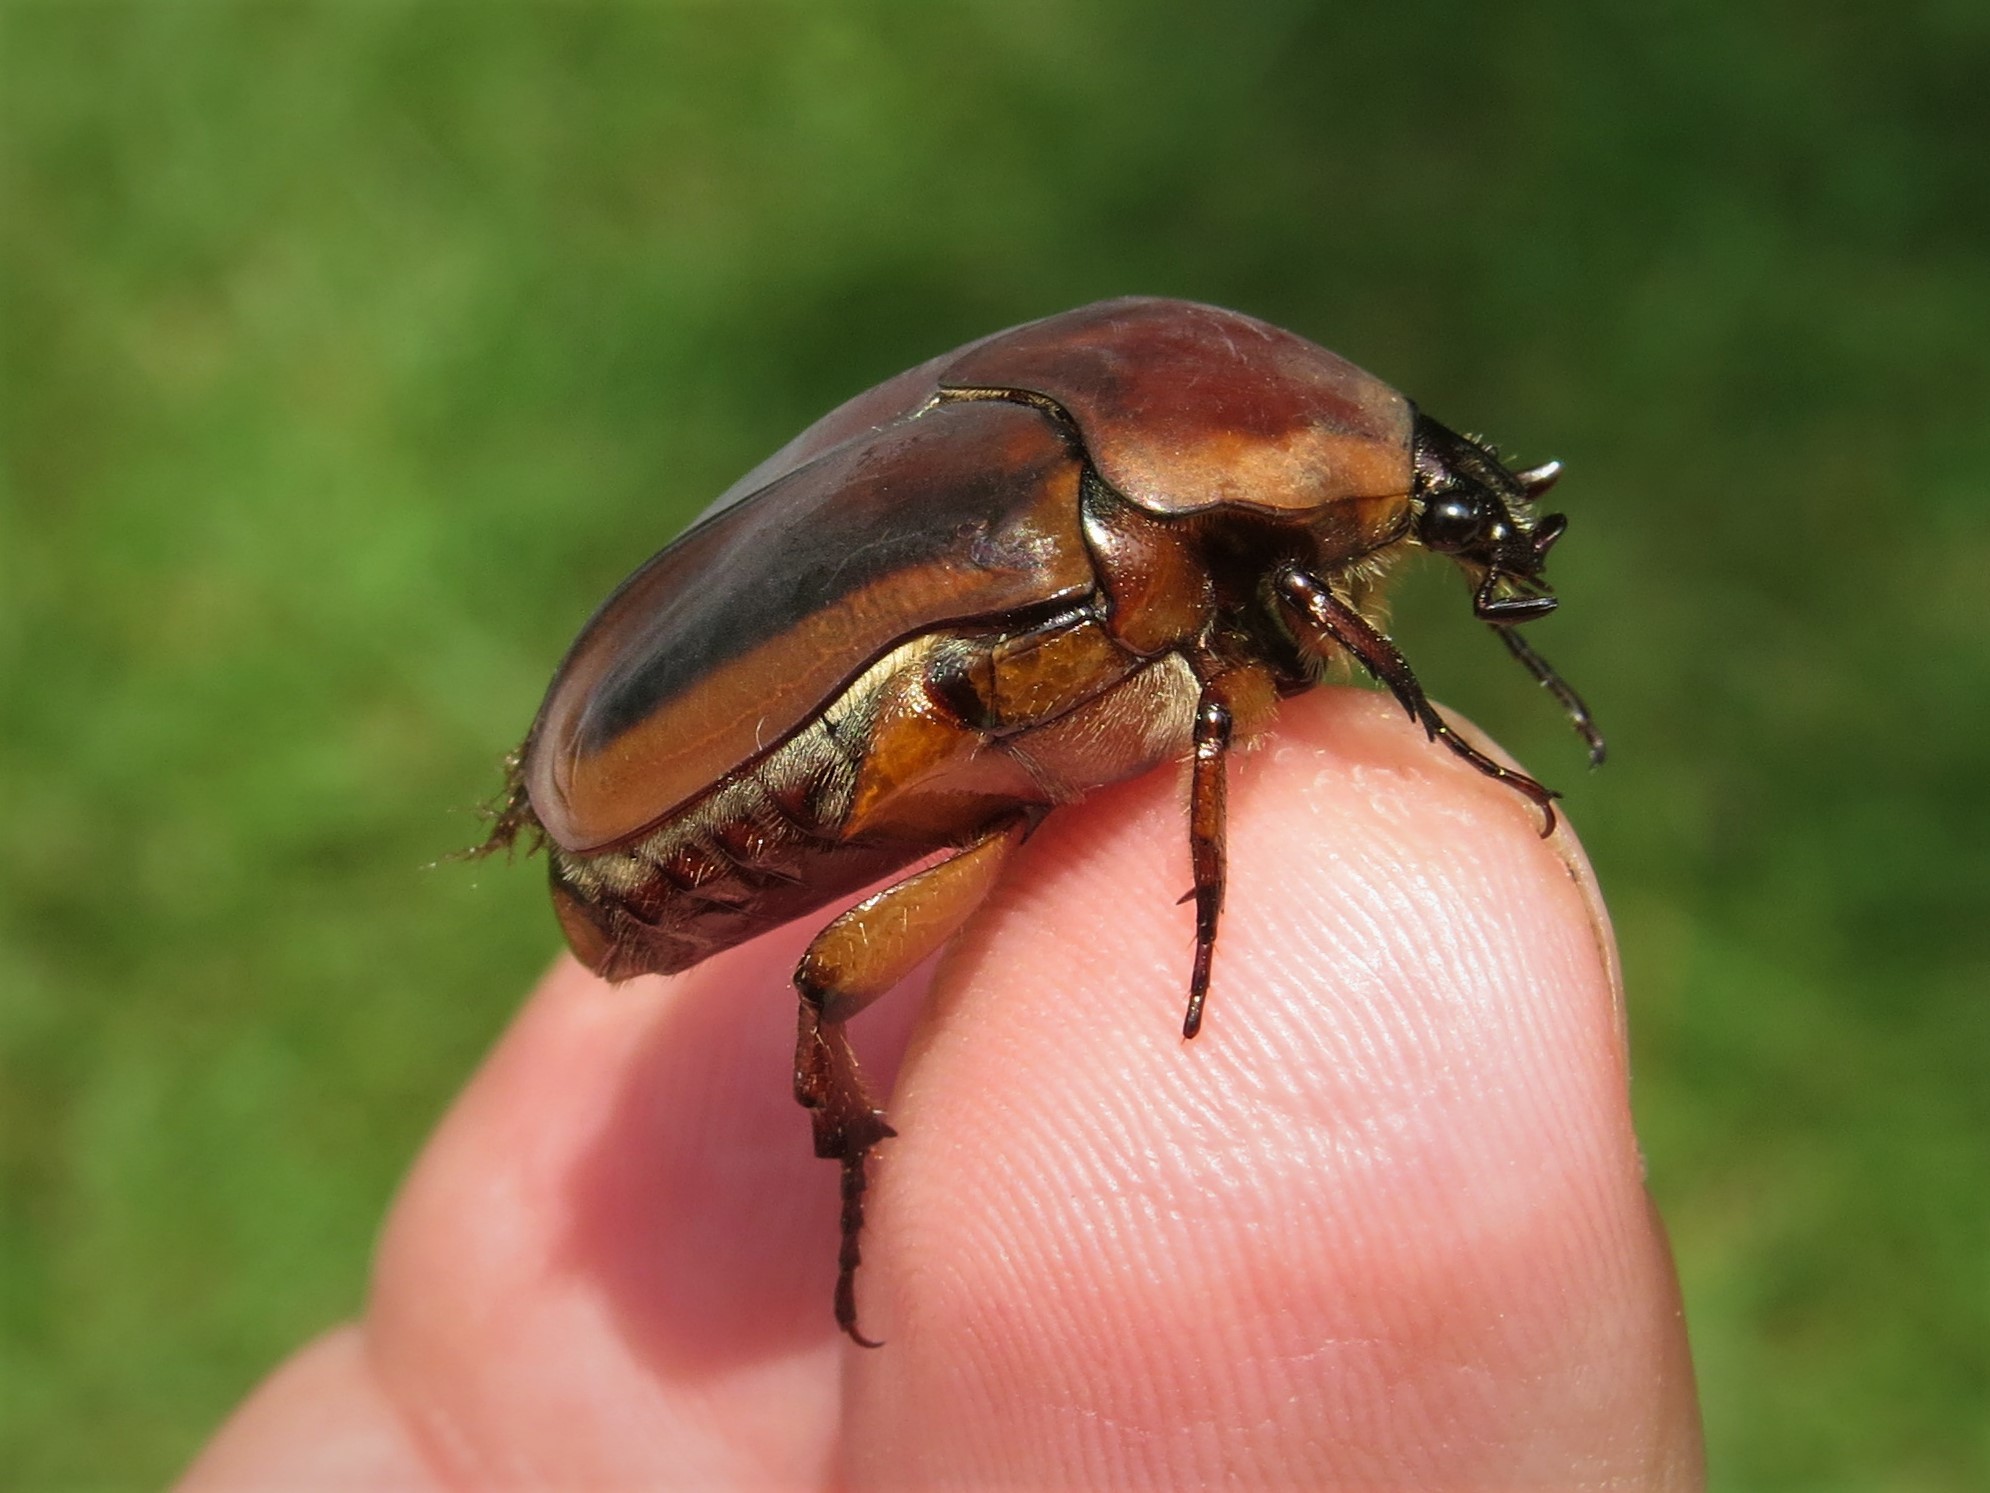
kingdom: Animalia
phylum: Arthropoda
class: Insecta
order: Coleoptera
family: Scarabaeidae
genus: Cotinis
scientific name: Cotinis nitida
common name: Common green june beetle
